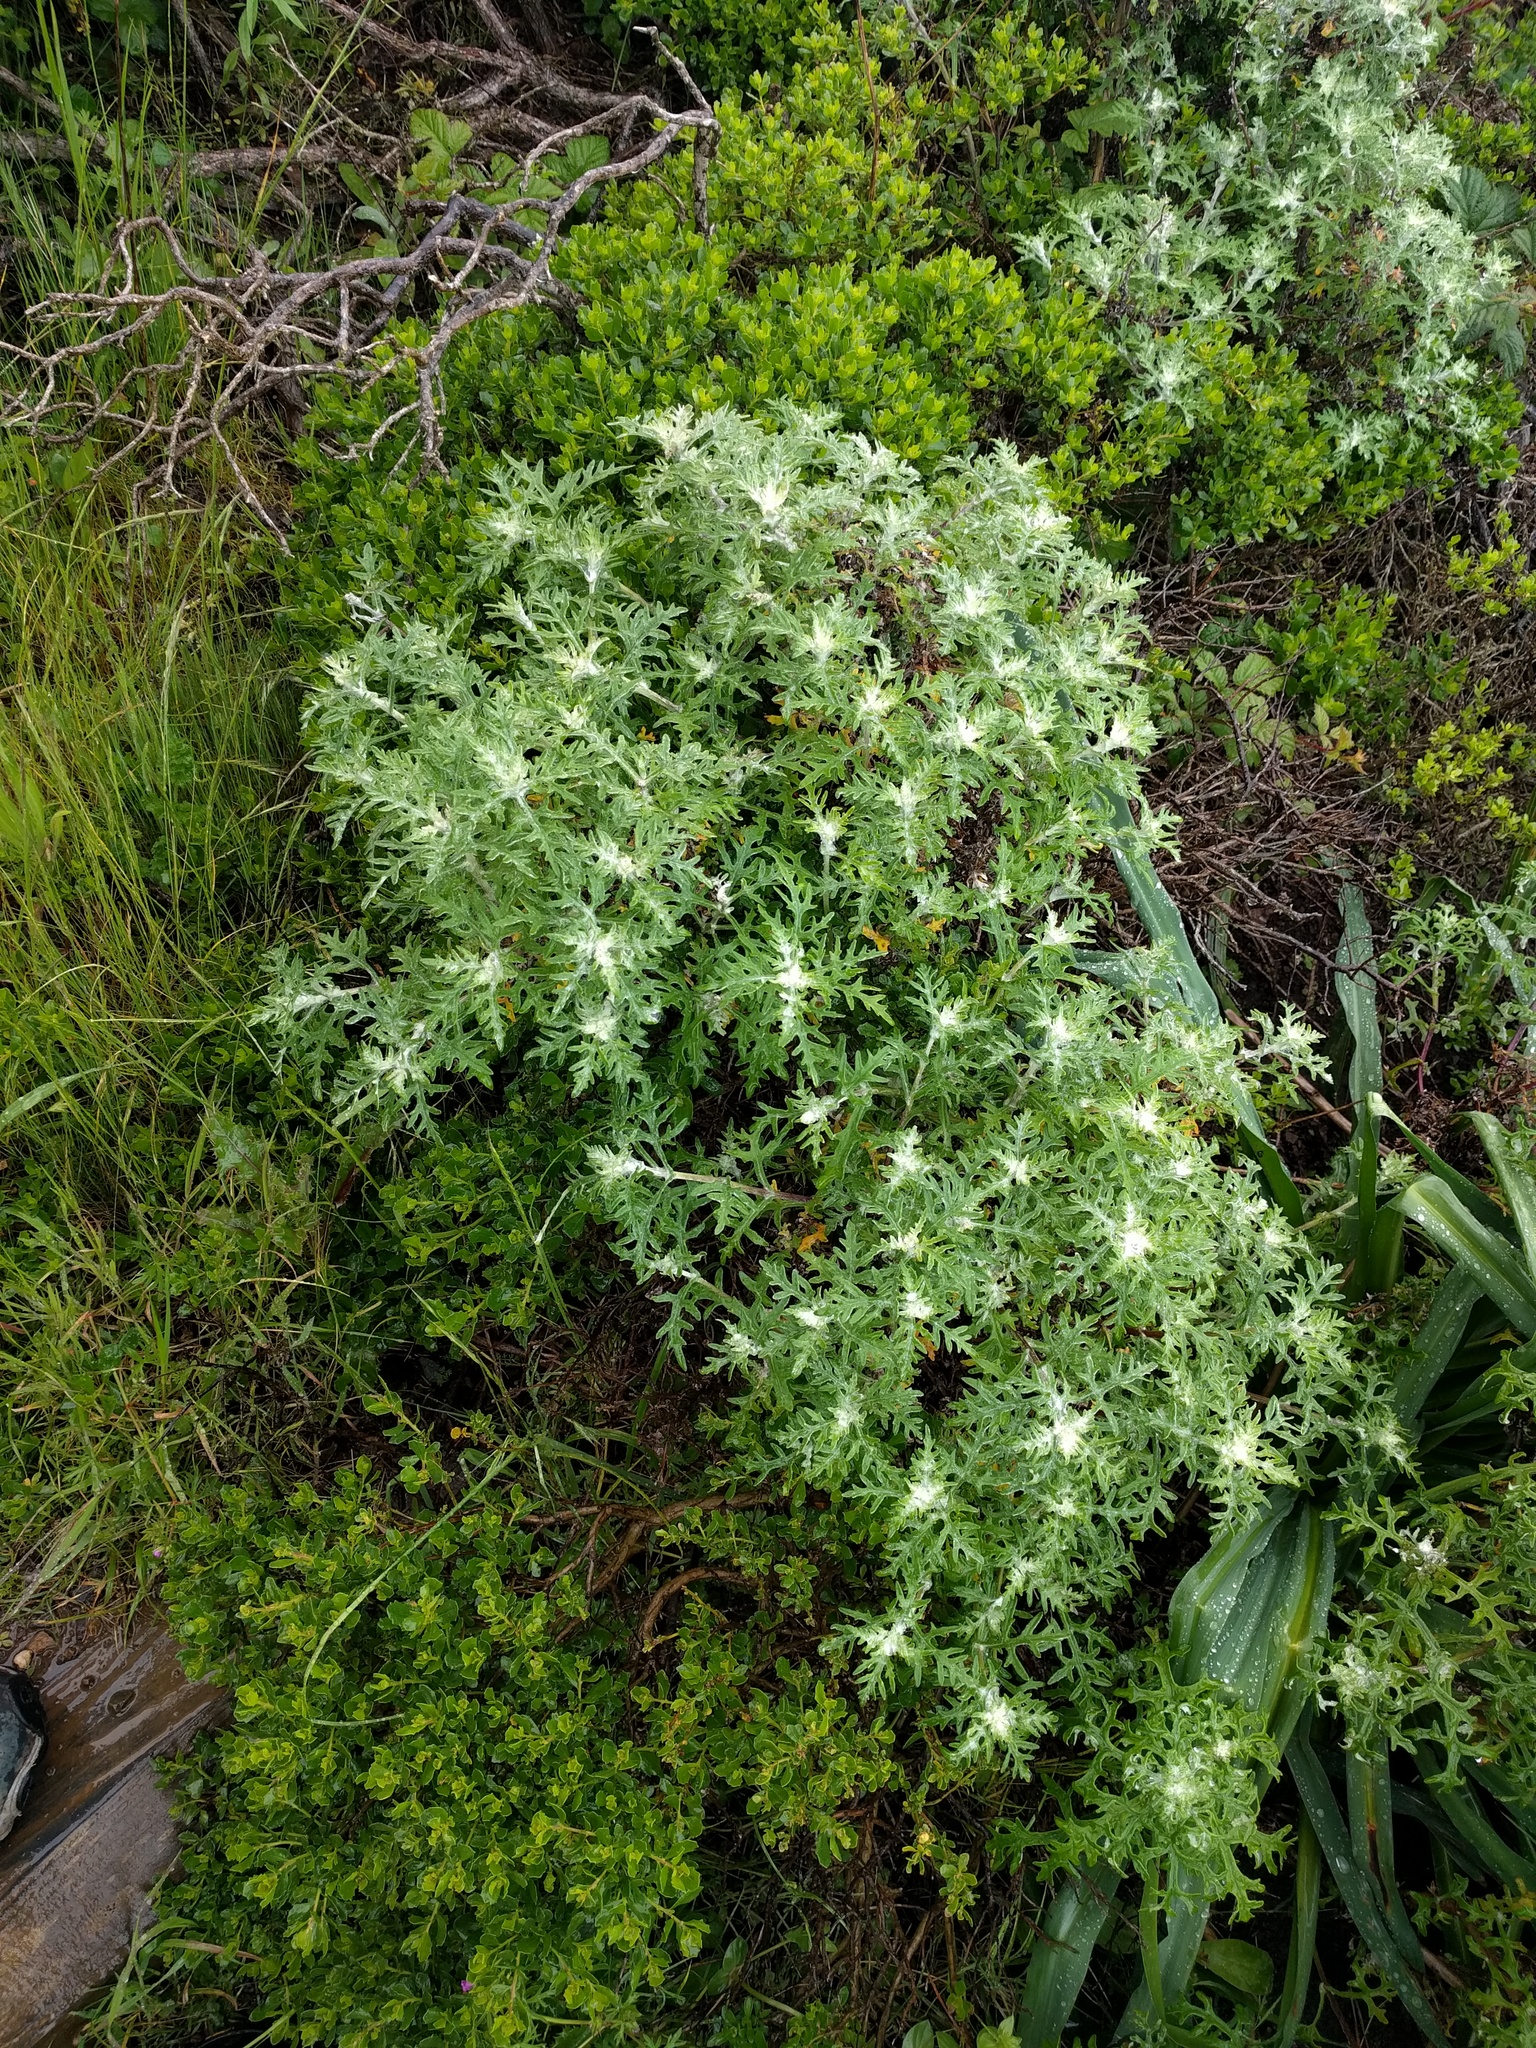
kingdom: Plantae
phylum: Tracheophyta
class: Magnoliopsida
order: Asterales
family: Asteraceae
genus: Eriophyllum
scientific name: Eriophyllum staechadifolium
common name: Lizardtail
